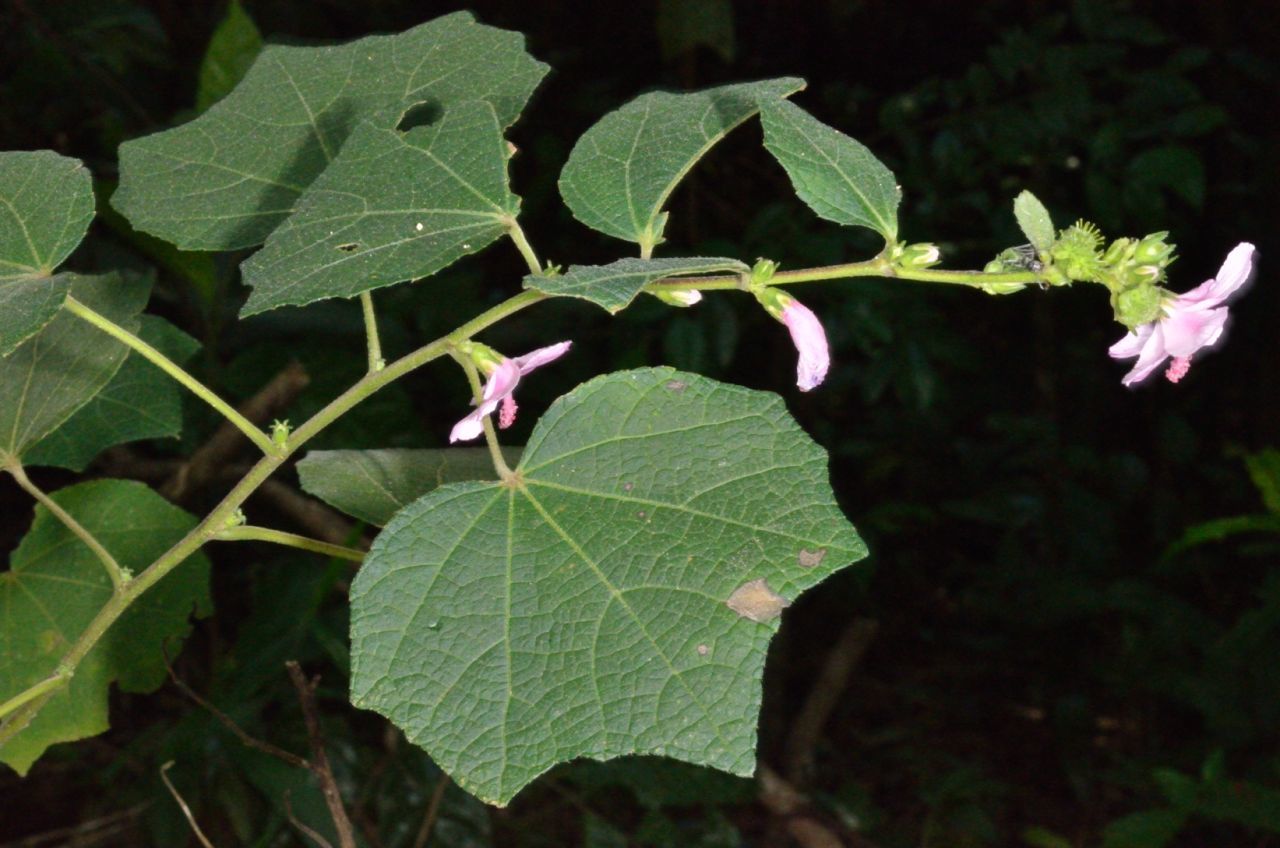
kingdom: Plantae
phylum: Tracheophyta
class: Magnoliopsida
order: Malvales
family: Malvaceae
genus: Urena
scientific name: Urena lobata
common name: Caesarweed
